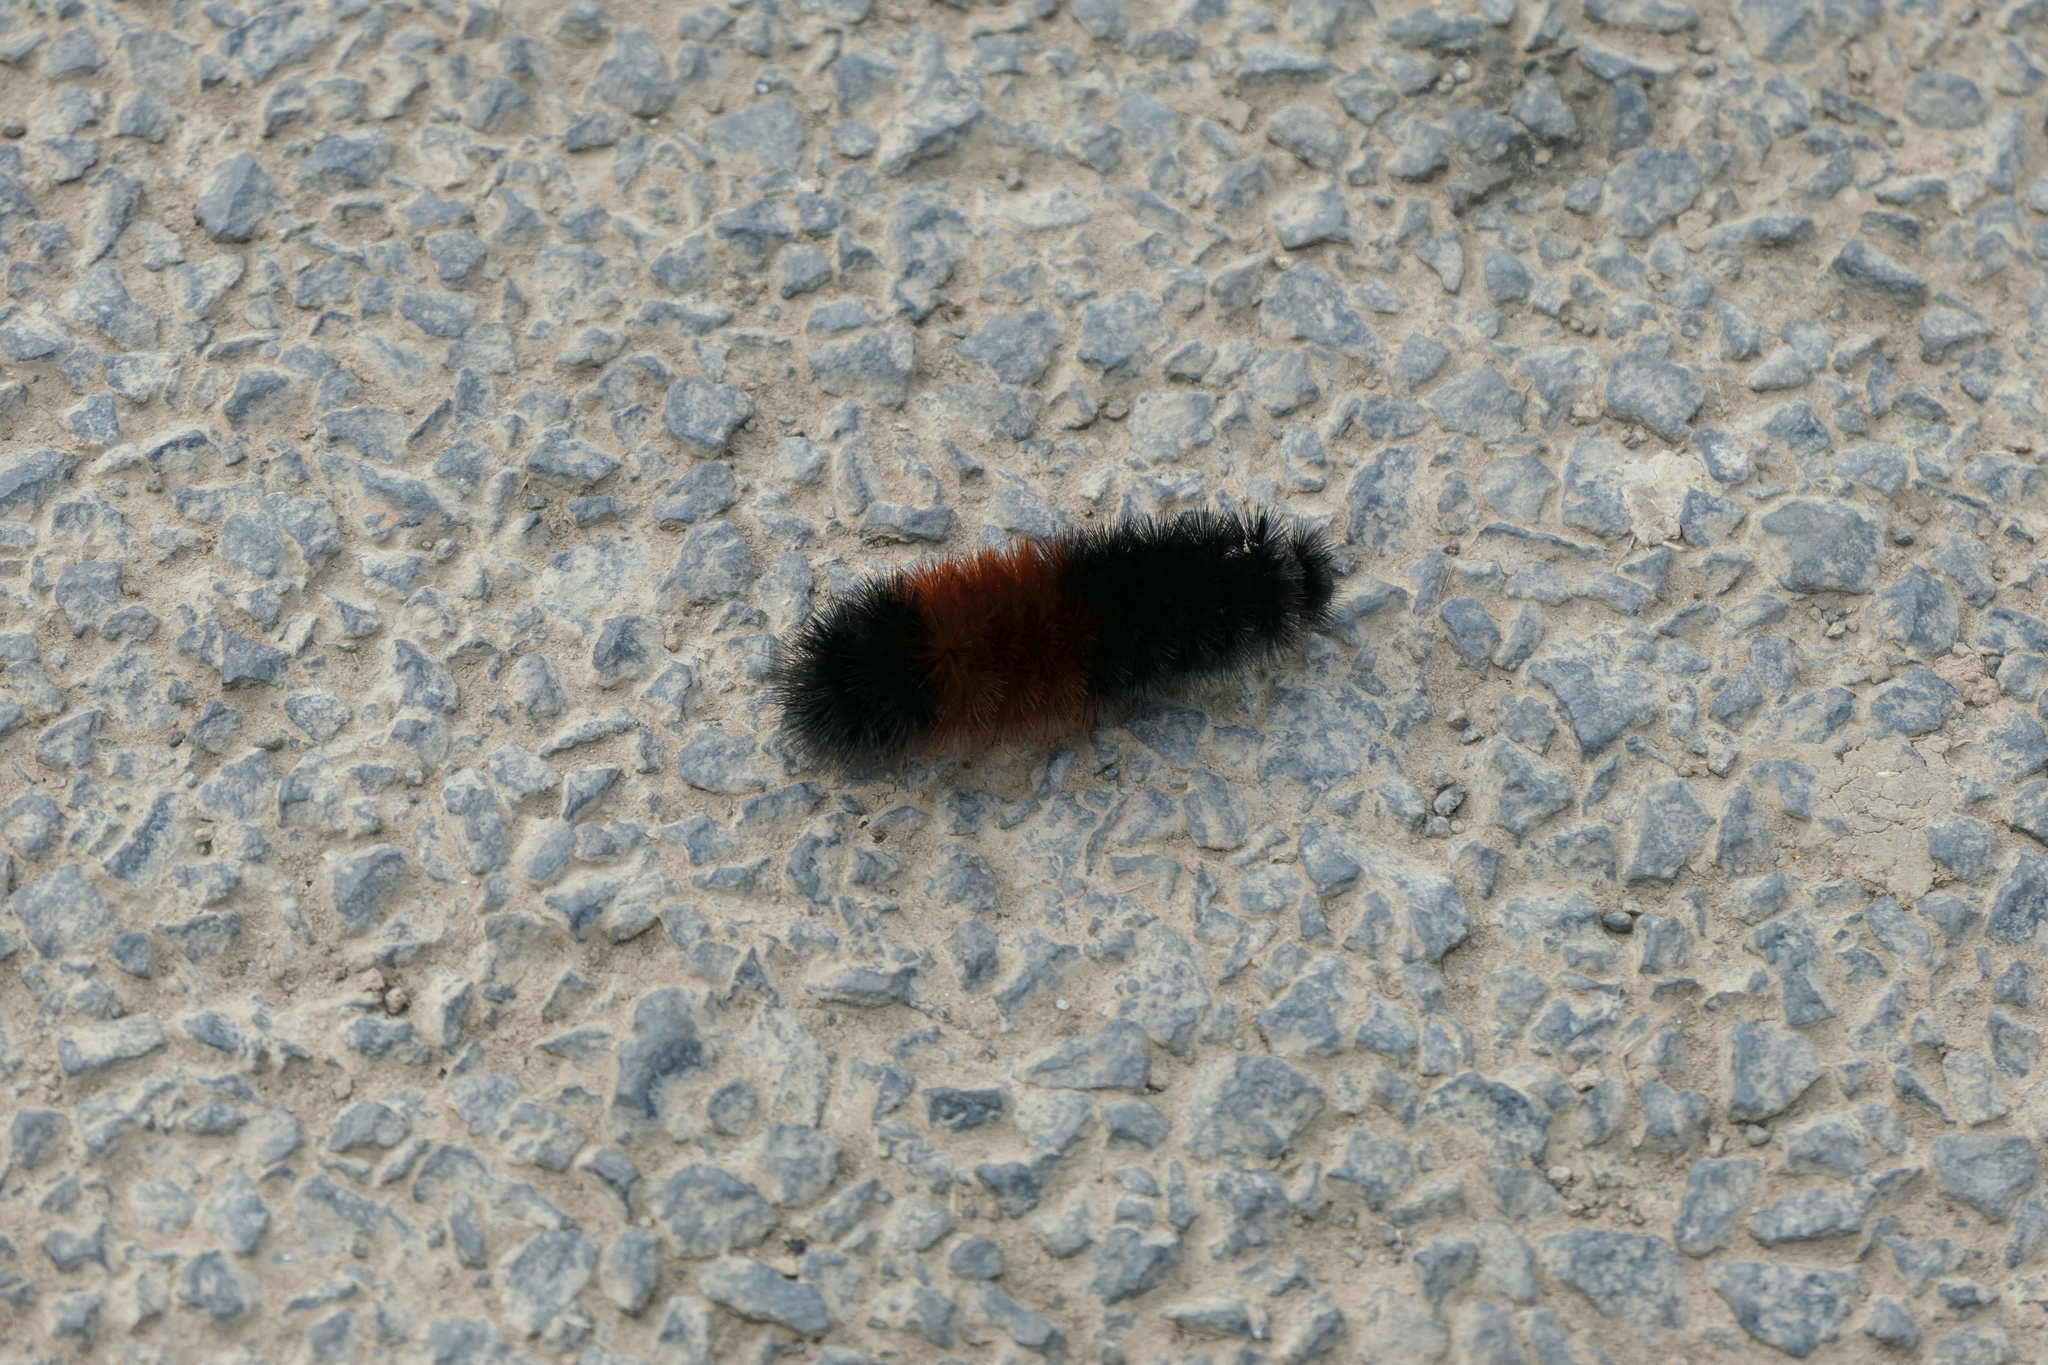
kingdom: Animalia
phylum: Arthropoda
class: Insecta
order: Lepidoptera
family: Erebidae
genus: Pyrrharctia
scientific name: Pyrrharctia isabella
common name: Isabella tiger moth
